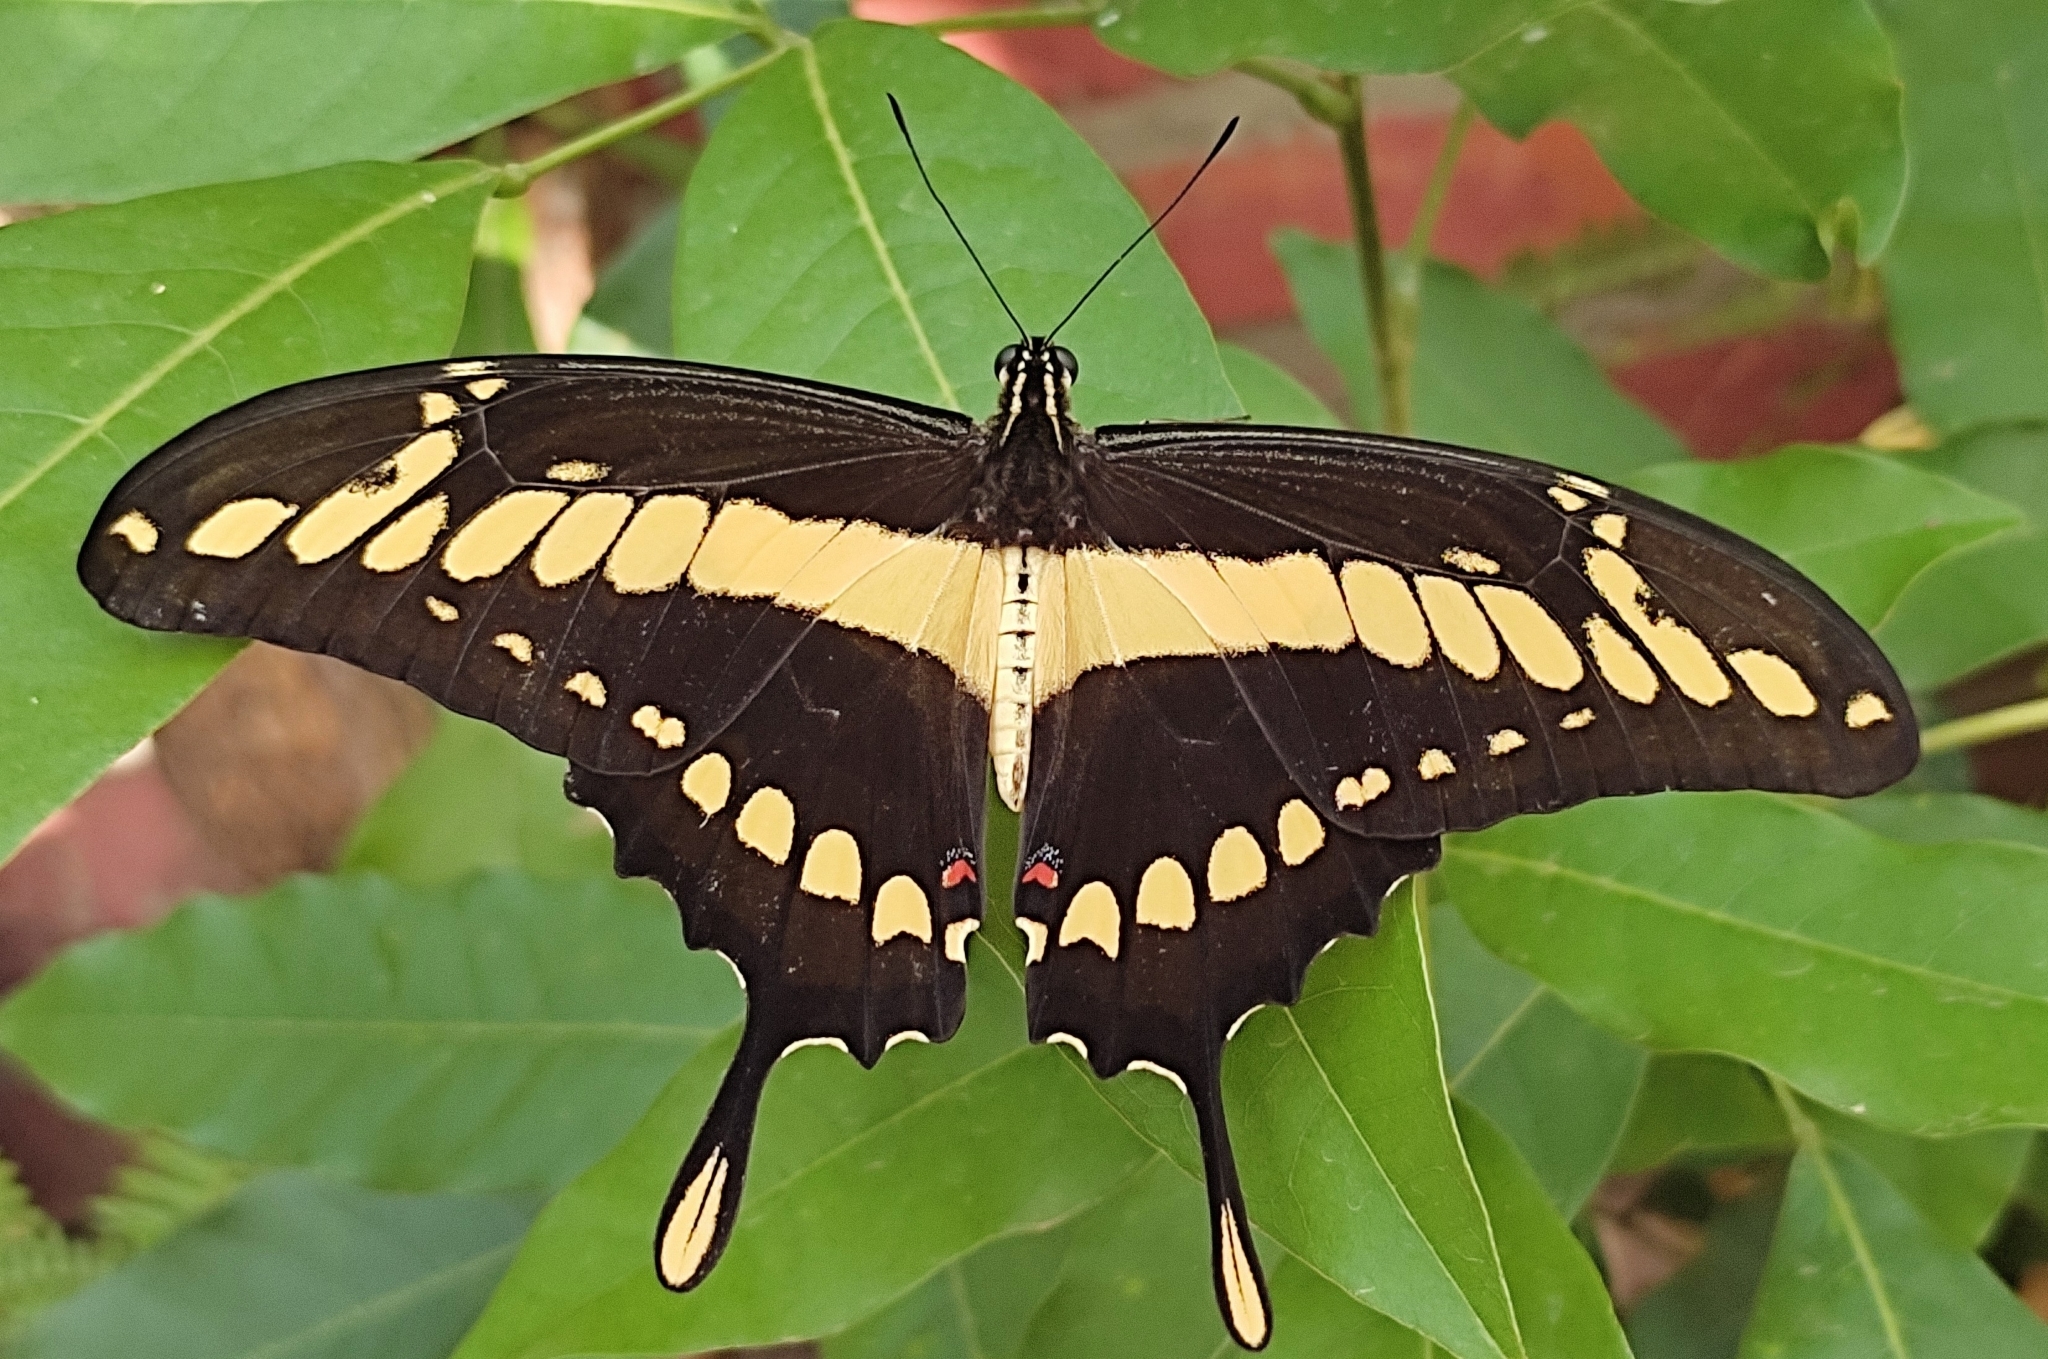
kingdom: Animalia
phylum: Arthropoda
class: Insecta
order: Lepidoptera
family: Papilionidae
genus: Papilio
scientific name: Papilio thoas
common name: King swallowtail
